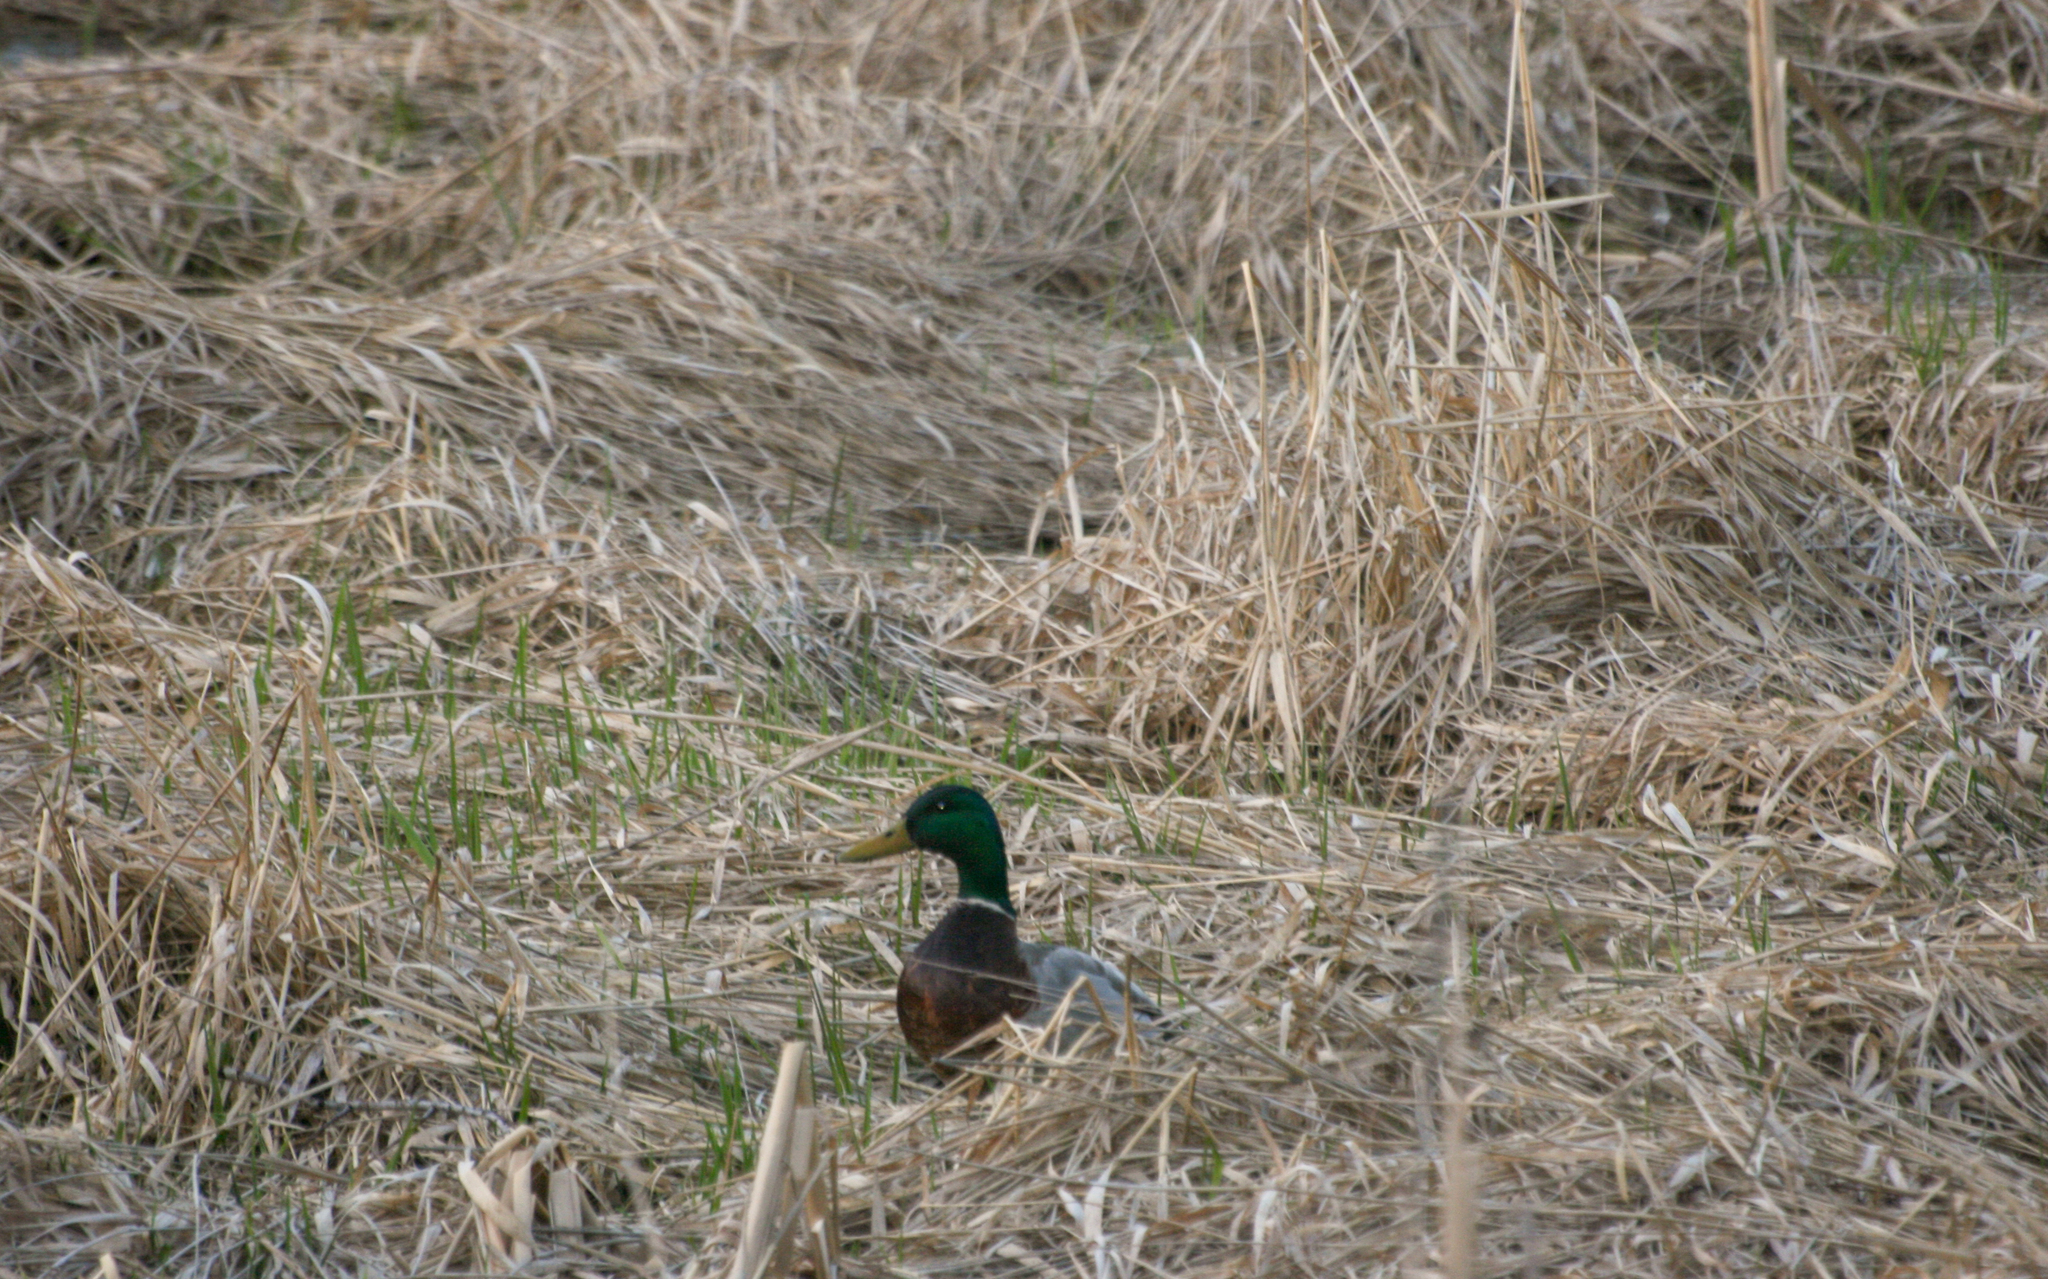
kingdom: Animalia
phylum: Chordata
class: Aves
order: Anseriformes
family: Anatidae
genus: Anas
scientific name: Anas platyrhynchos
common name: Mallard
